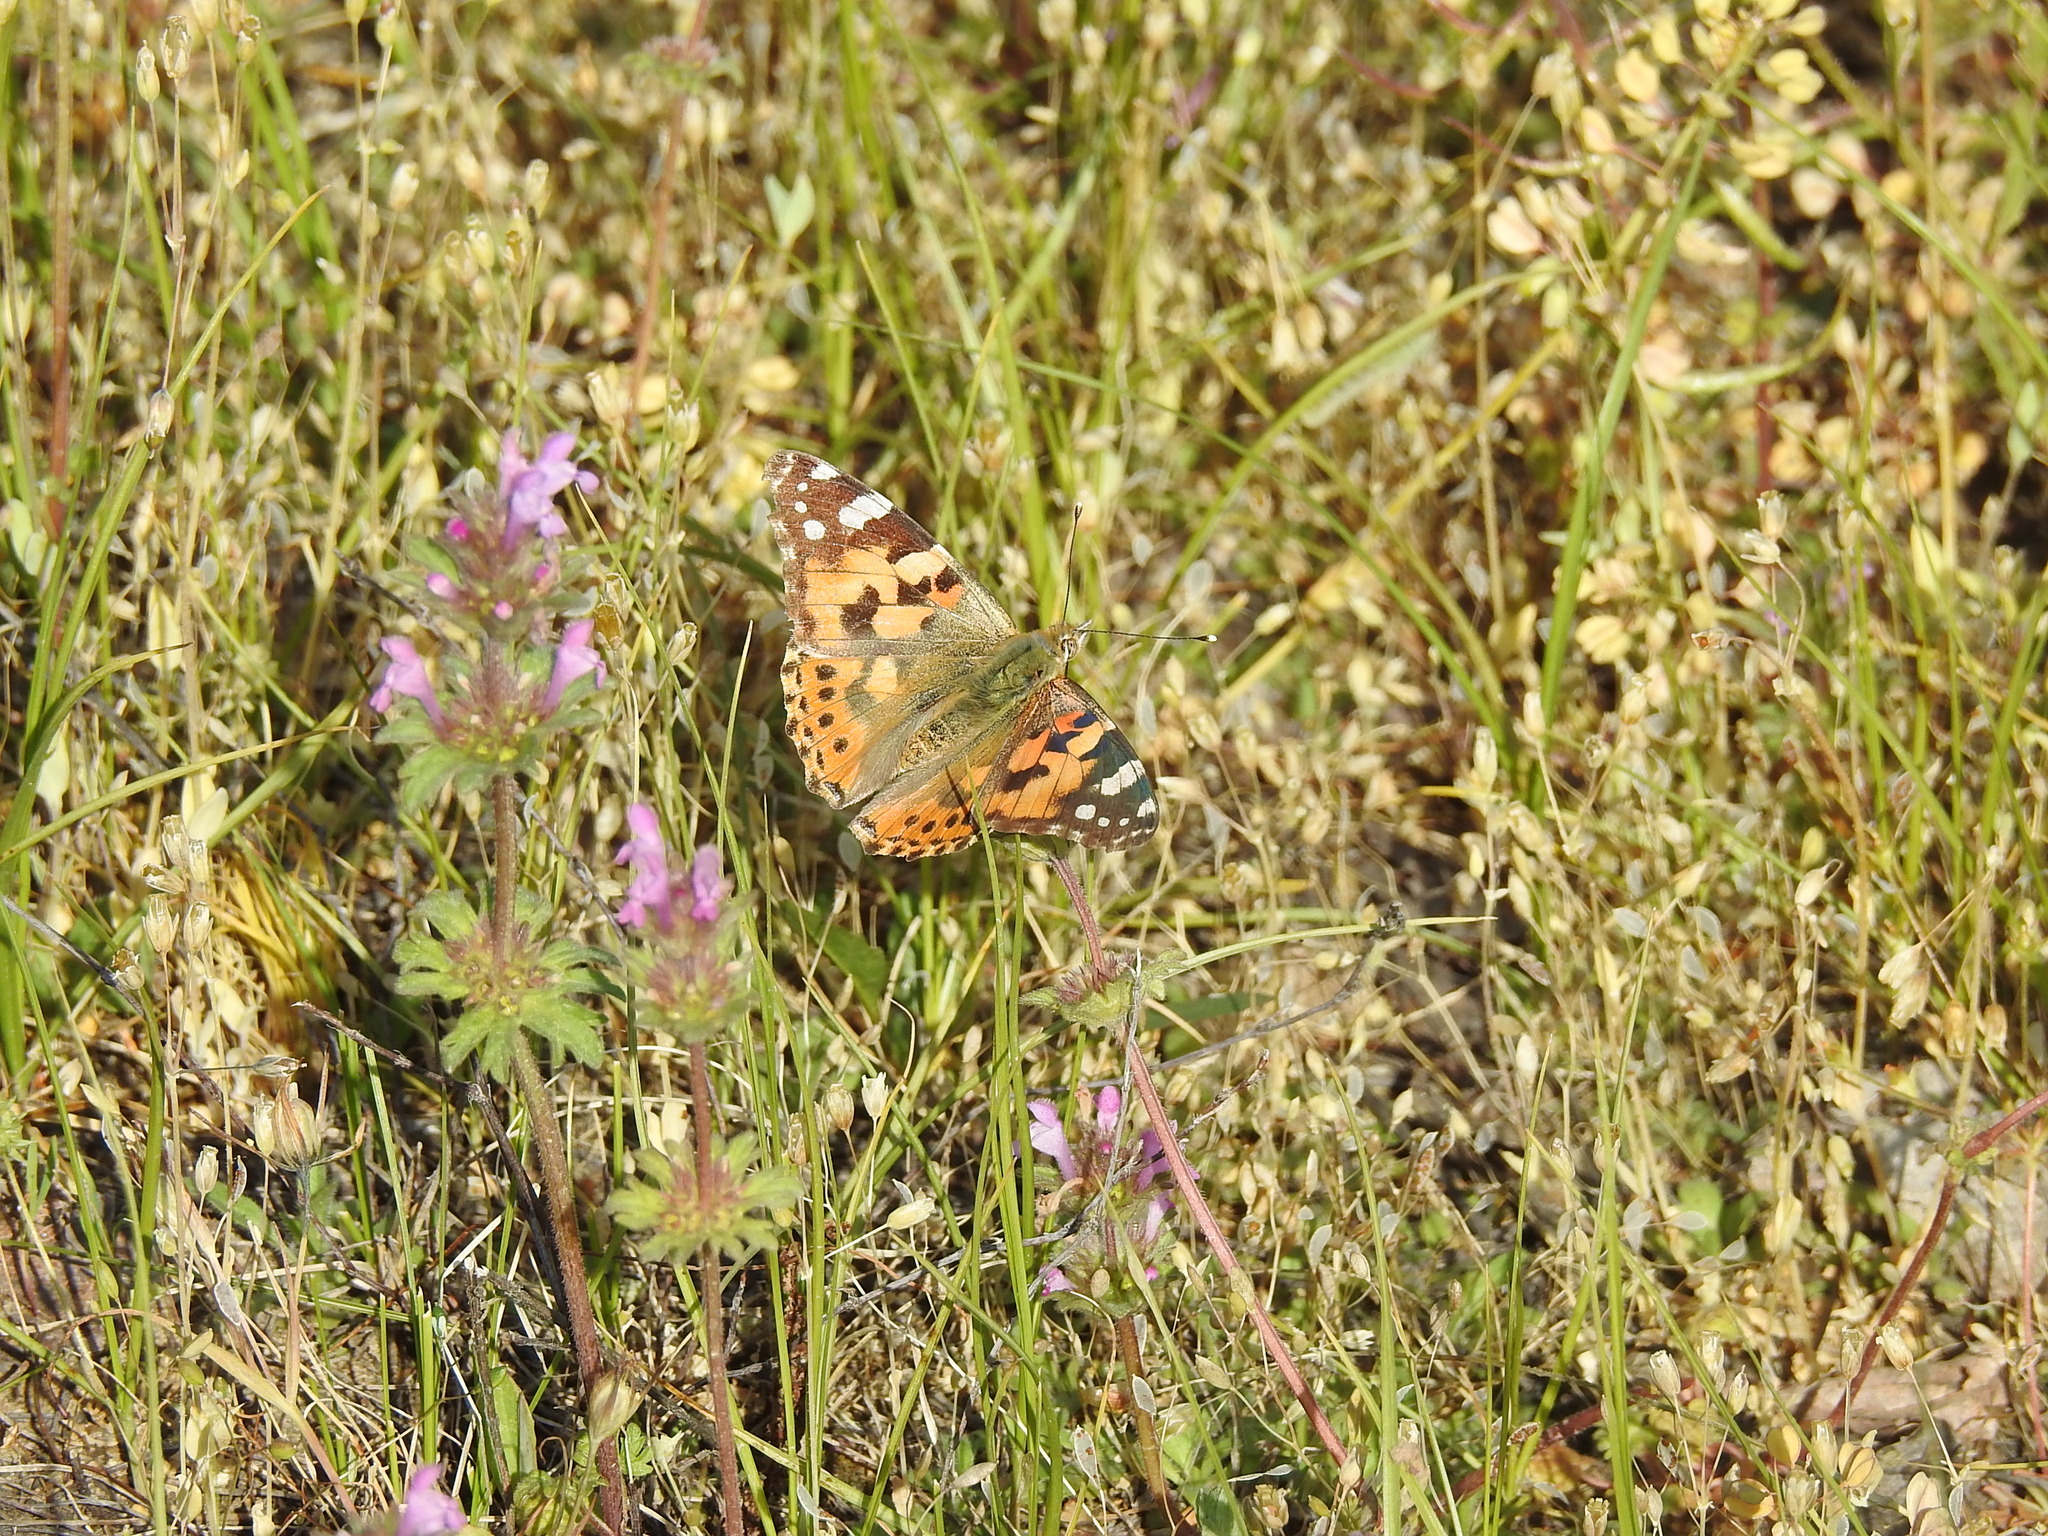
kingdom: Animalia
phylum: Arthropoda
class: Insecta
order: Lepidoptera
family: Nymphalidae
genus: Vanessa
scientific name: Vanessa cardui
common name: Painted lady
